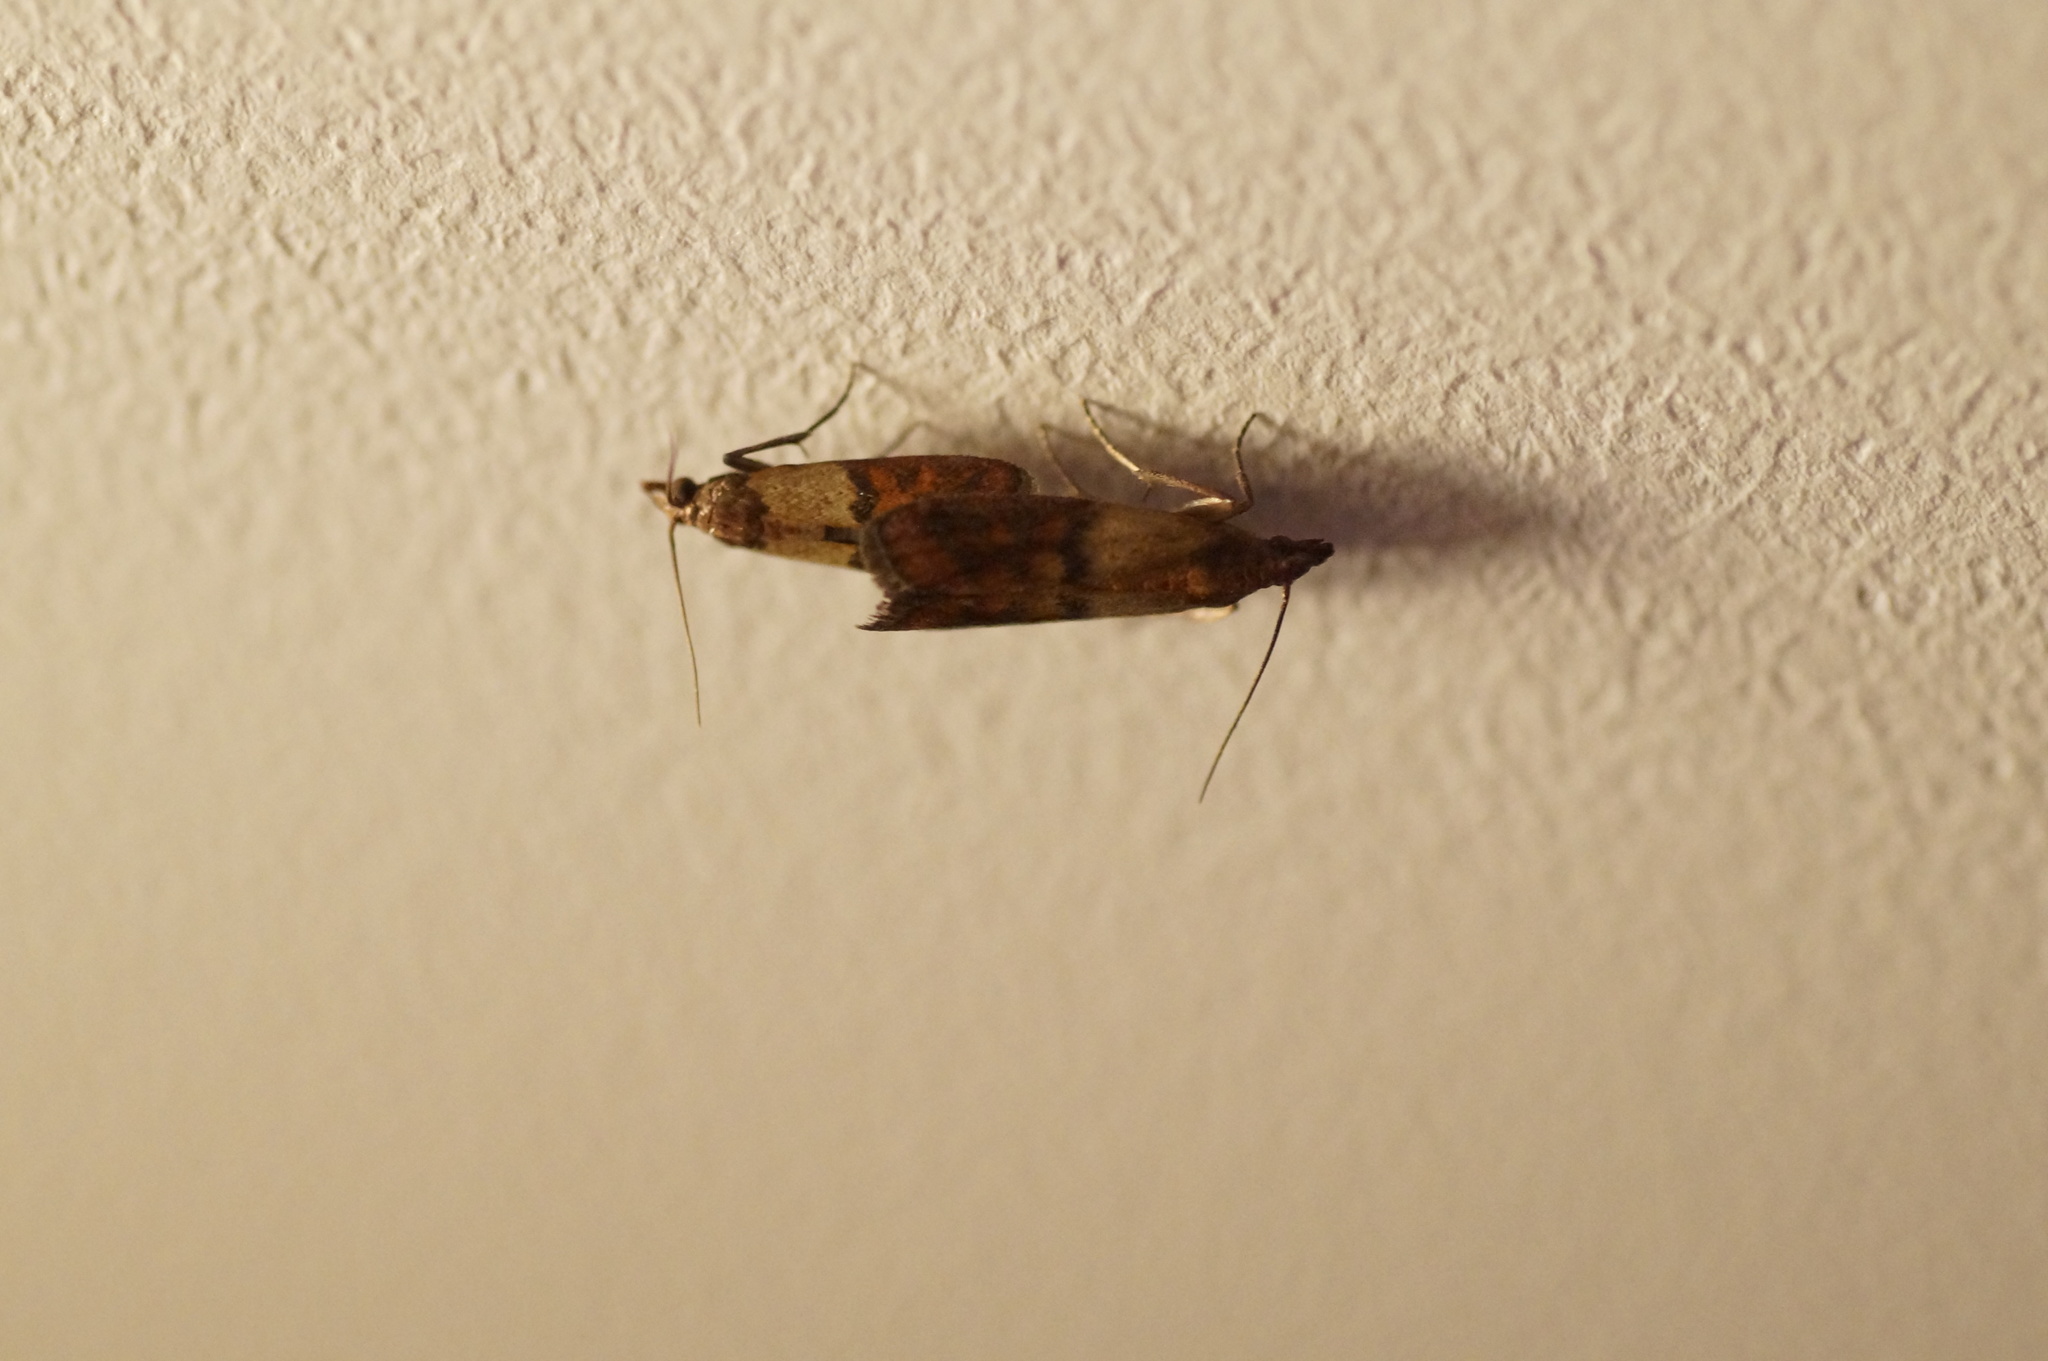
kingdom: Animalia
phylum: Arthropoda
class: Insecta
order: Lepidoptera
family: Pyralidae
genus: Plodia
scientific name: Plodia interpunctella
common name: Indian meal moth
